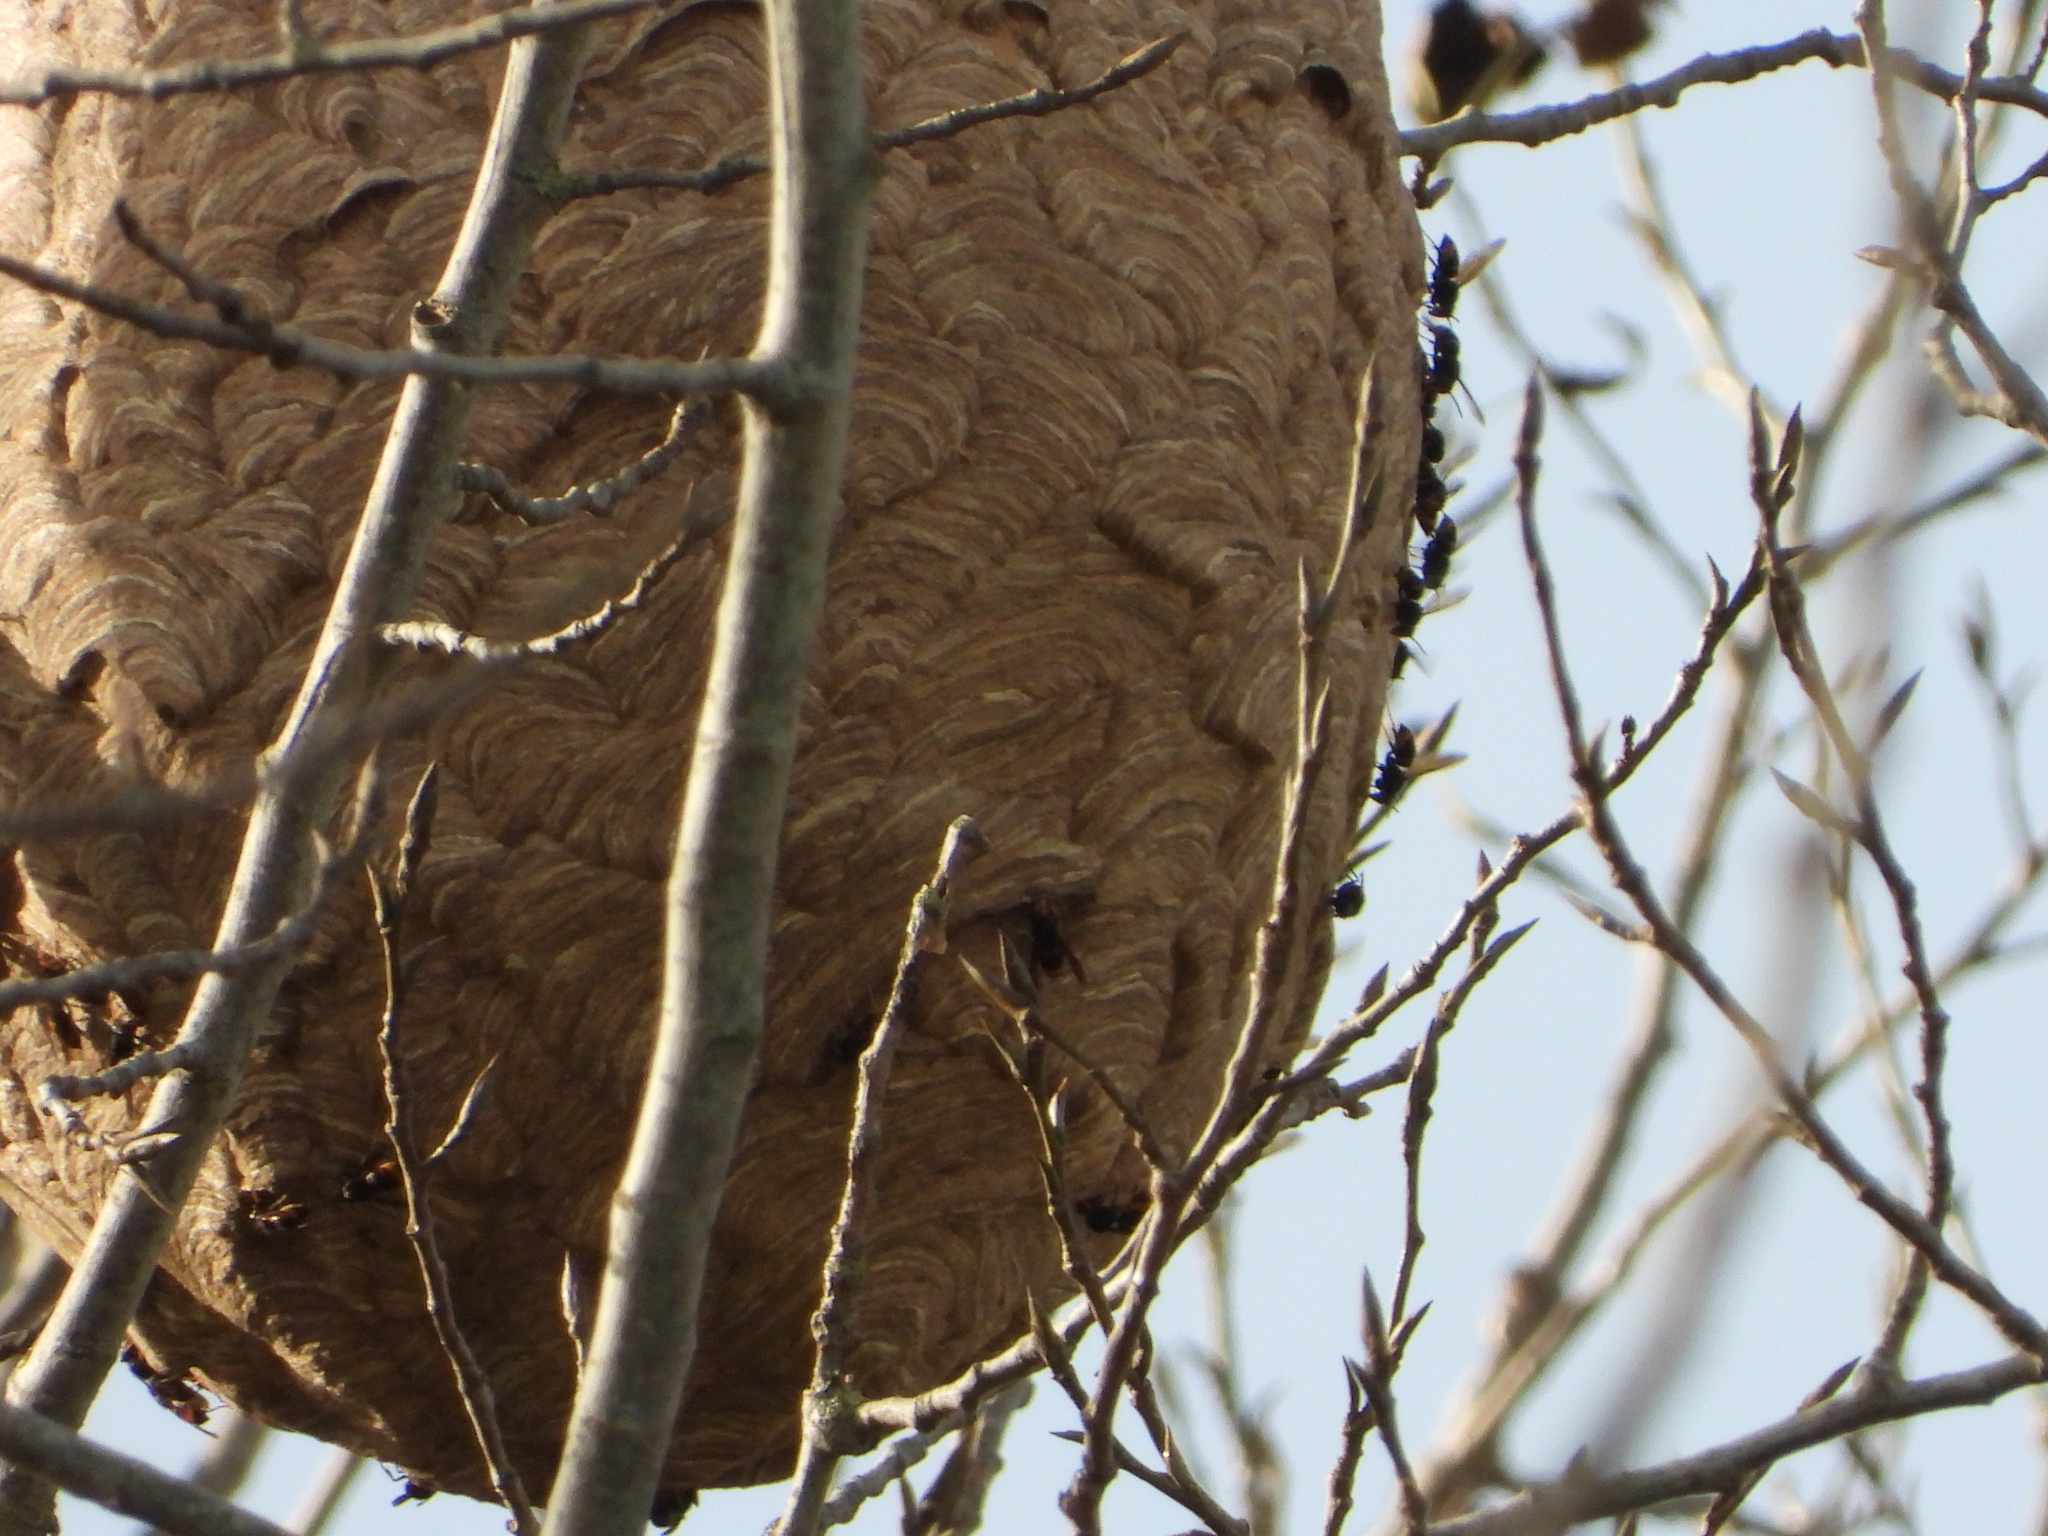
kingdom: Animalia
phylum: Arthropoda
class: Insecta
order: Hymenoptera
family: Vespidae
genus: Vespa
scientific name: Vespa velutina
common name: Asian hornet
